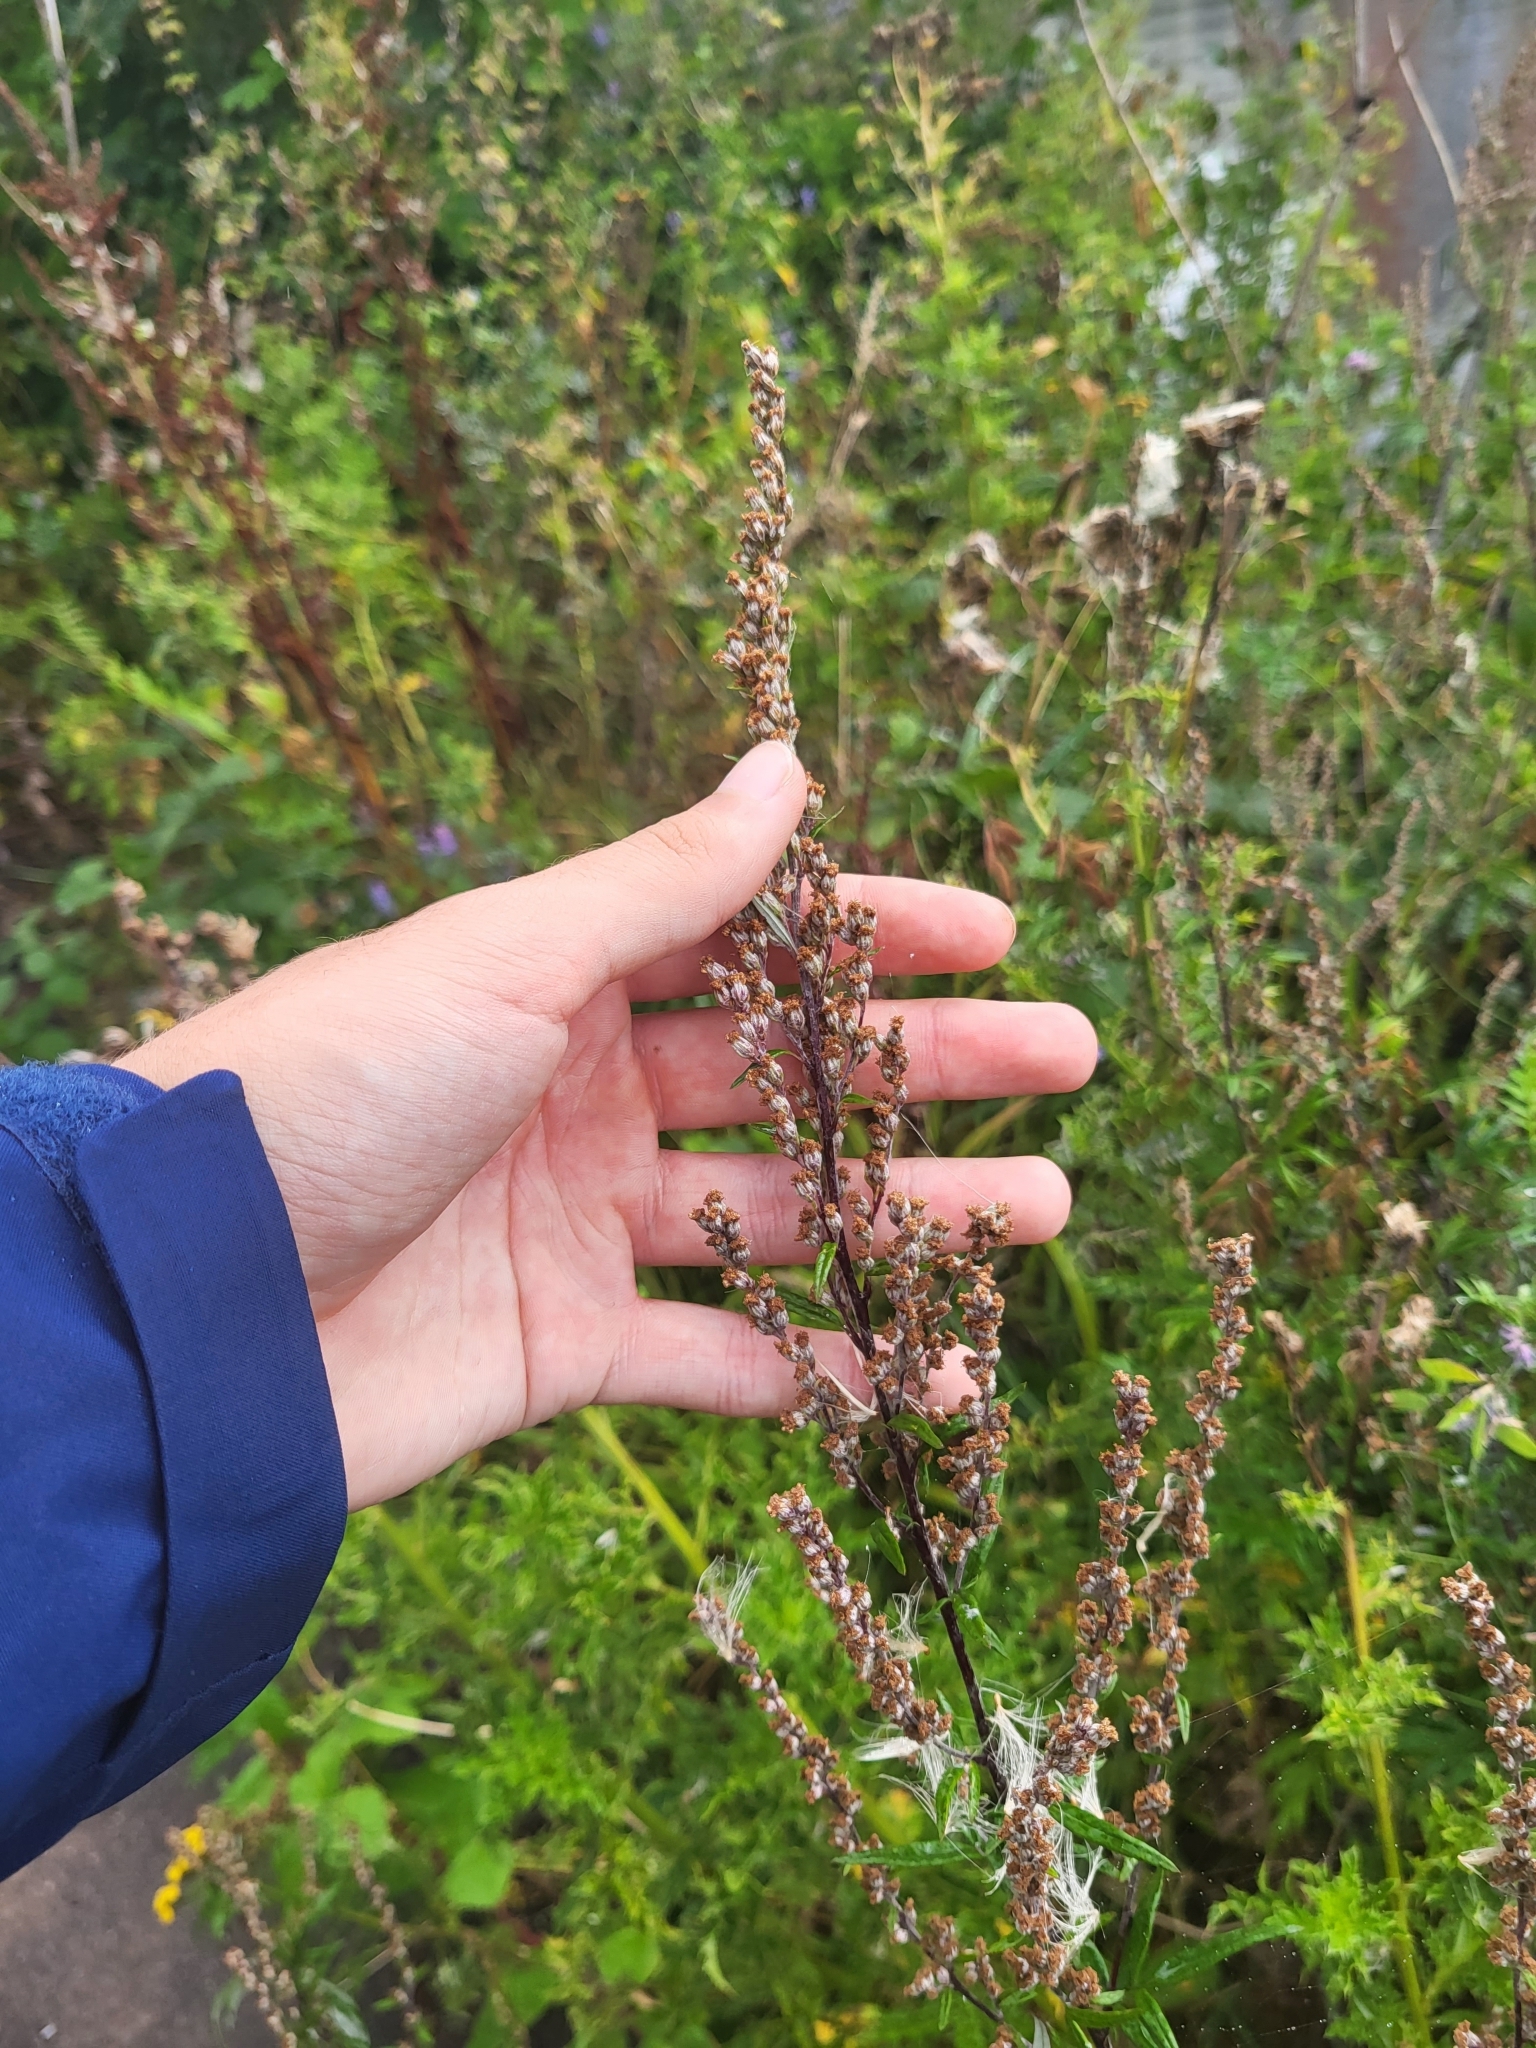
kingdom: Plantae
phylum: Tracheophyta
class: Magnoliopsida
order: Asterales
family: Asteraceae
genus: Artemisia
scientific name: Artemisia vulgaris
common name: Mugwort
